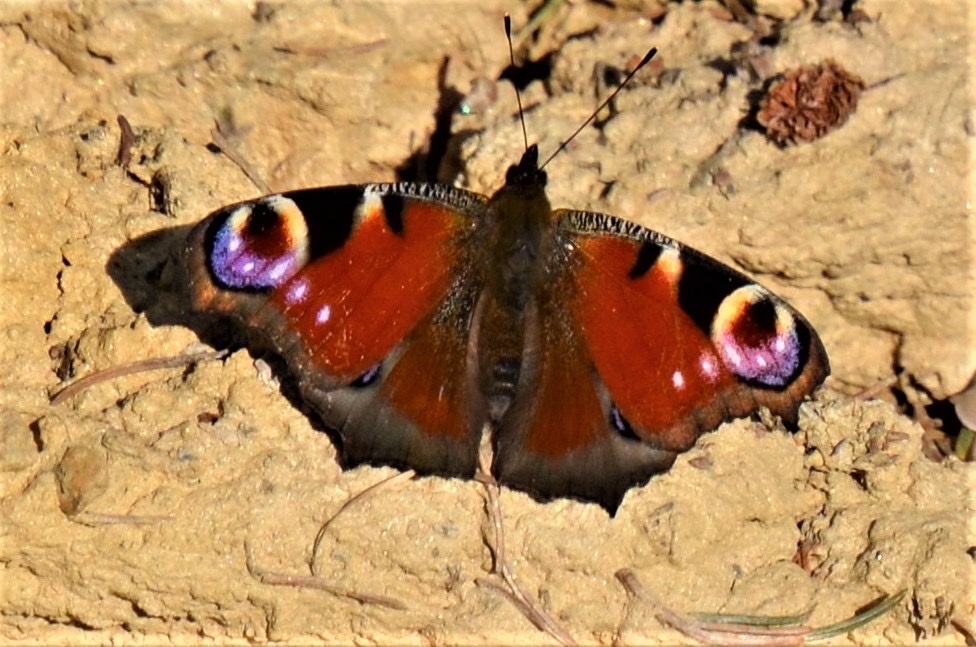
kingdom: Animalia
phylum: Arthropoda
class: Insecta
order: Lepidoptera
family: Nymphalidae
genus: Aglais
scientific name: Aglais io
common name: Peacock
